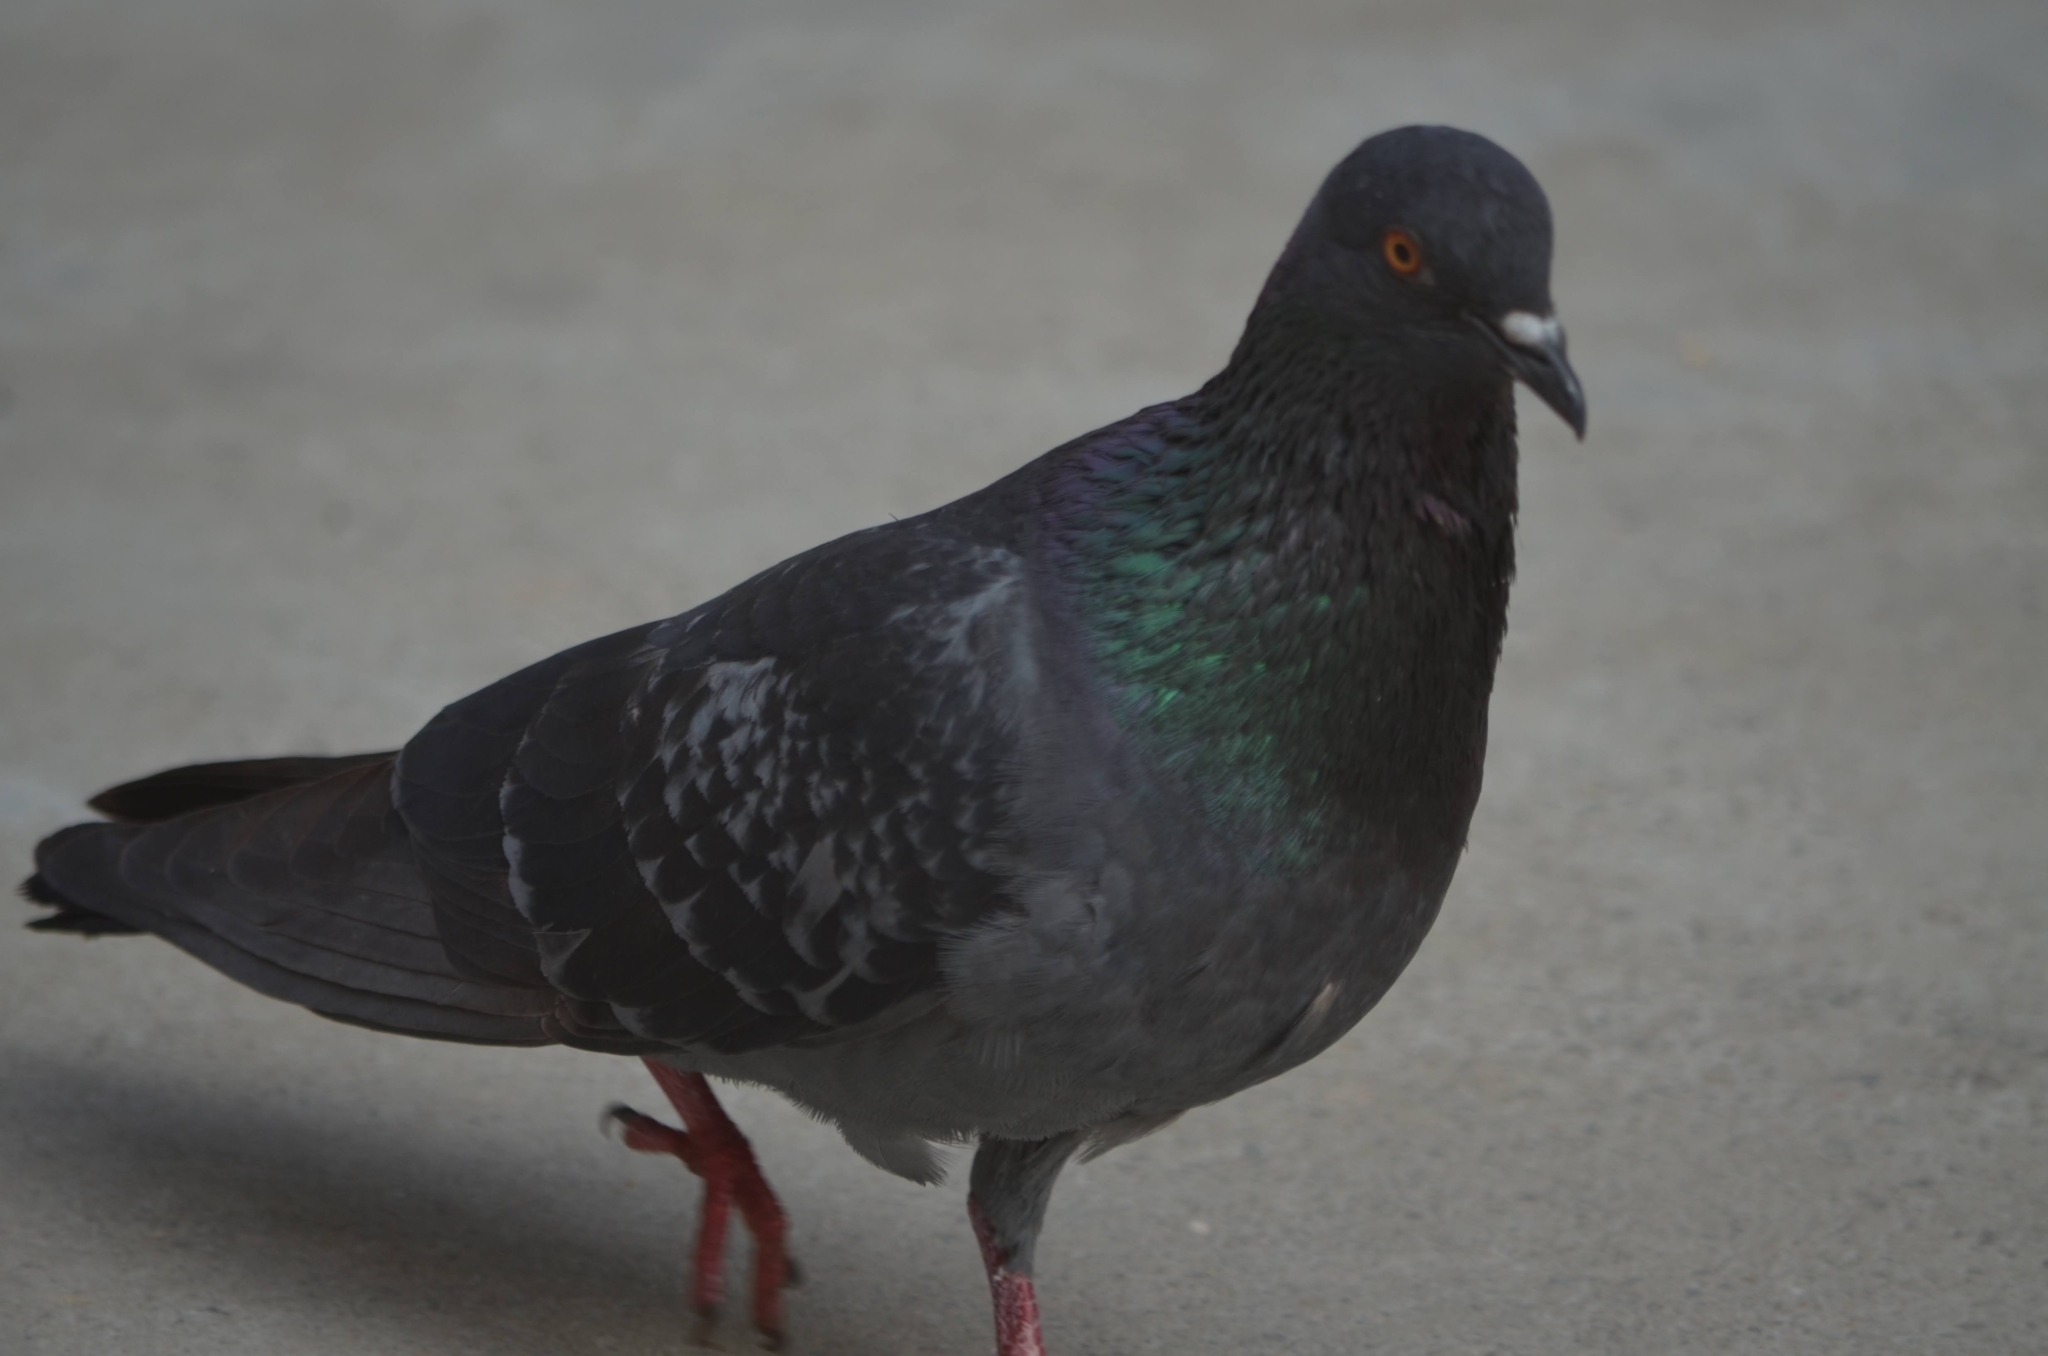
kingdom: Animalia
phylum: Chordata
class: Aves
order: Columbiformes
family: Columbidae
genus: Columba
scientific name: Columba livia
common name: Rock pigeon
